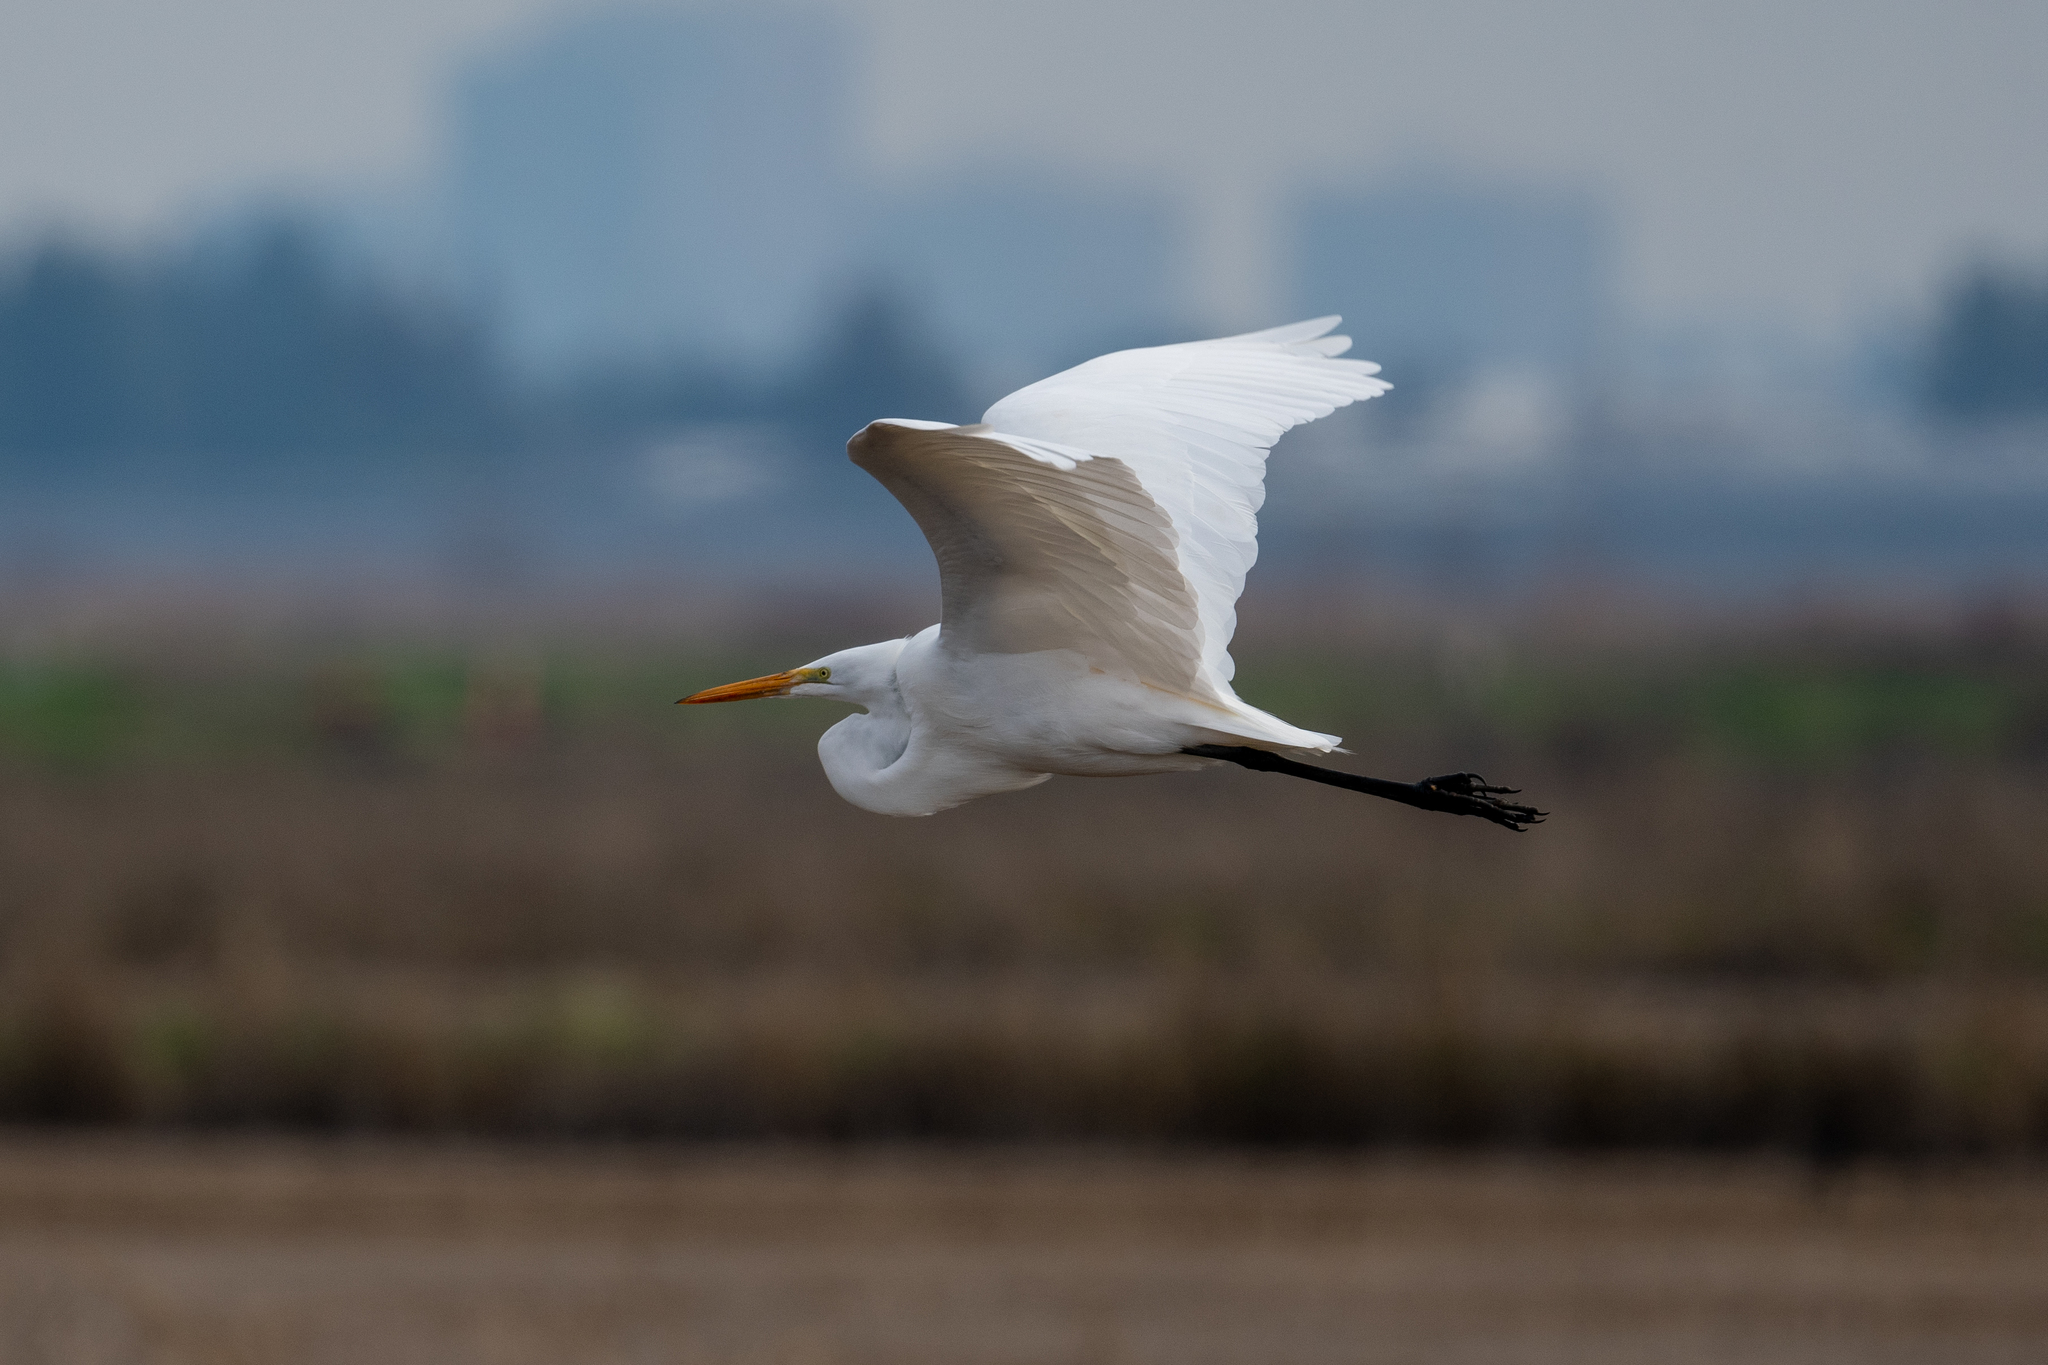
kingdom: Animalia
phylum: Chordata
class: Aves
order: Pelecaniformes
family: Ardeidae
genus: Ardea
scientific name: Ardea alba
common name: Great egret
